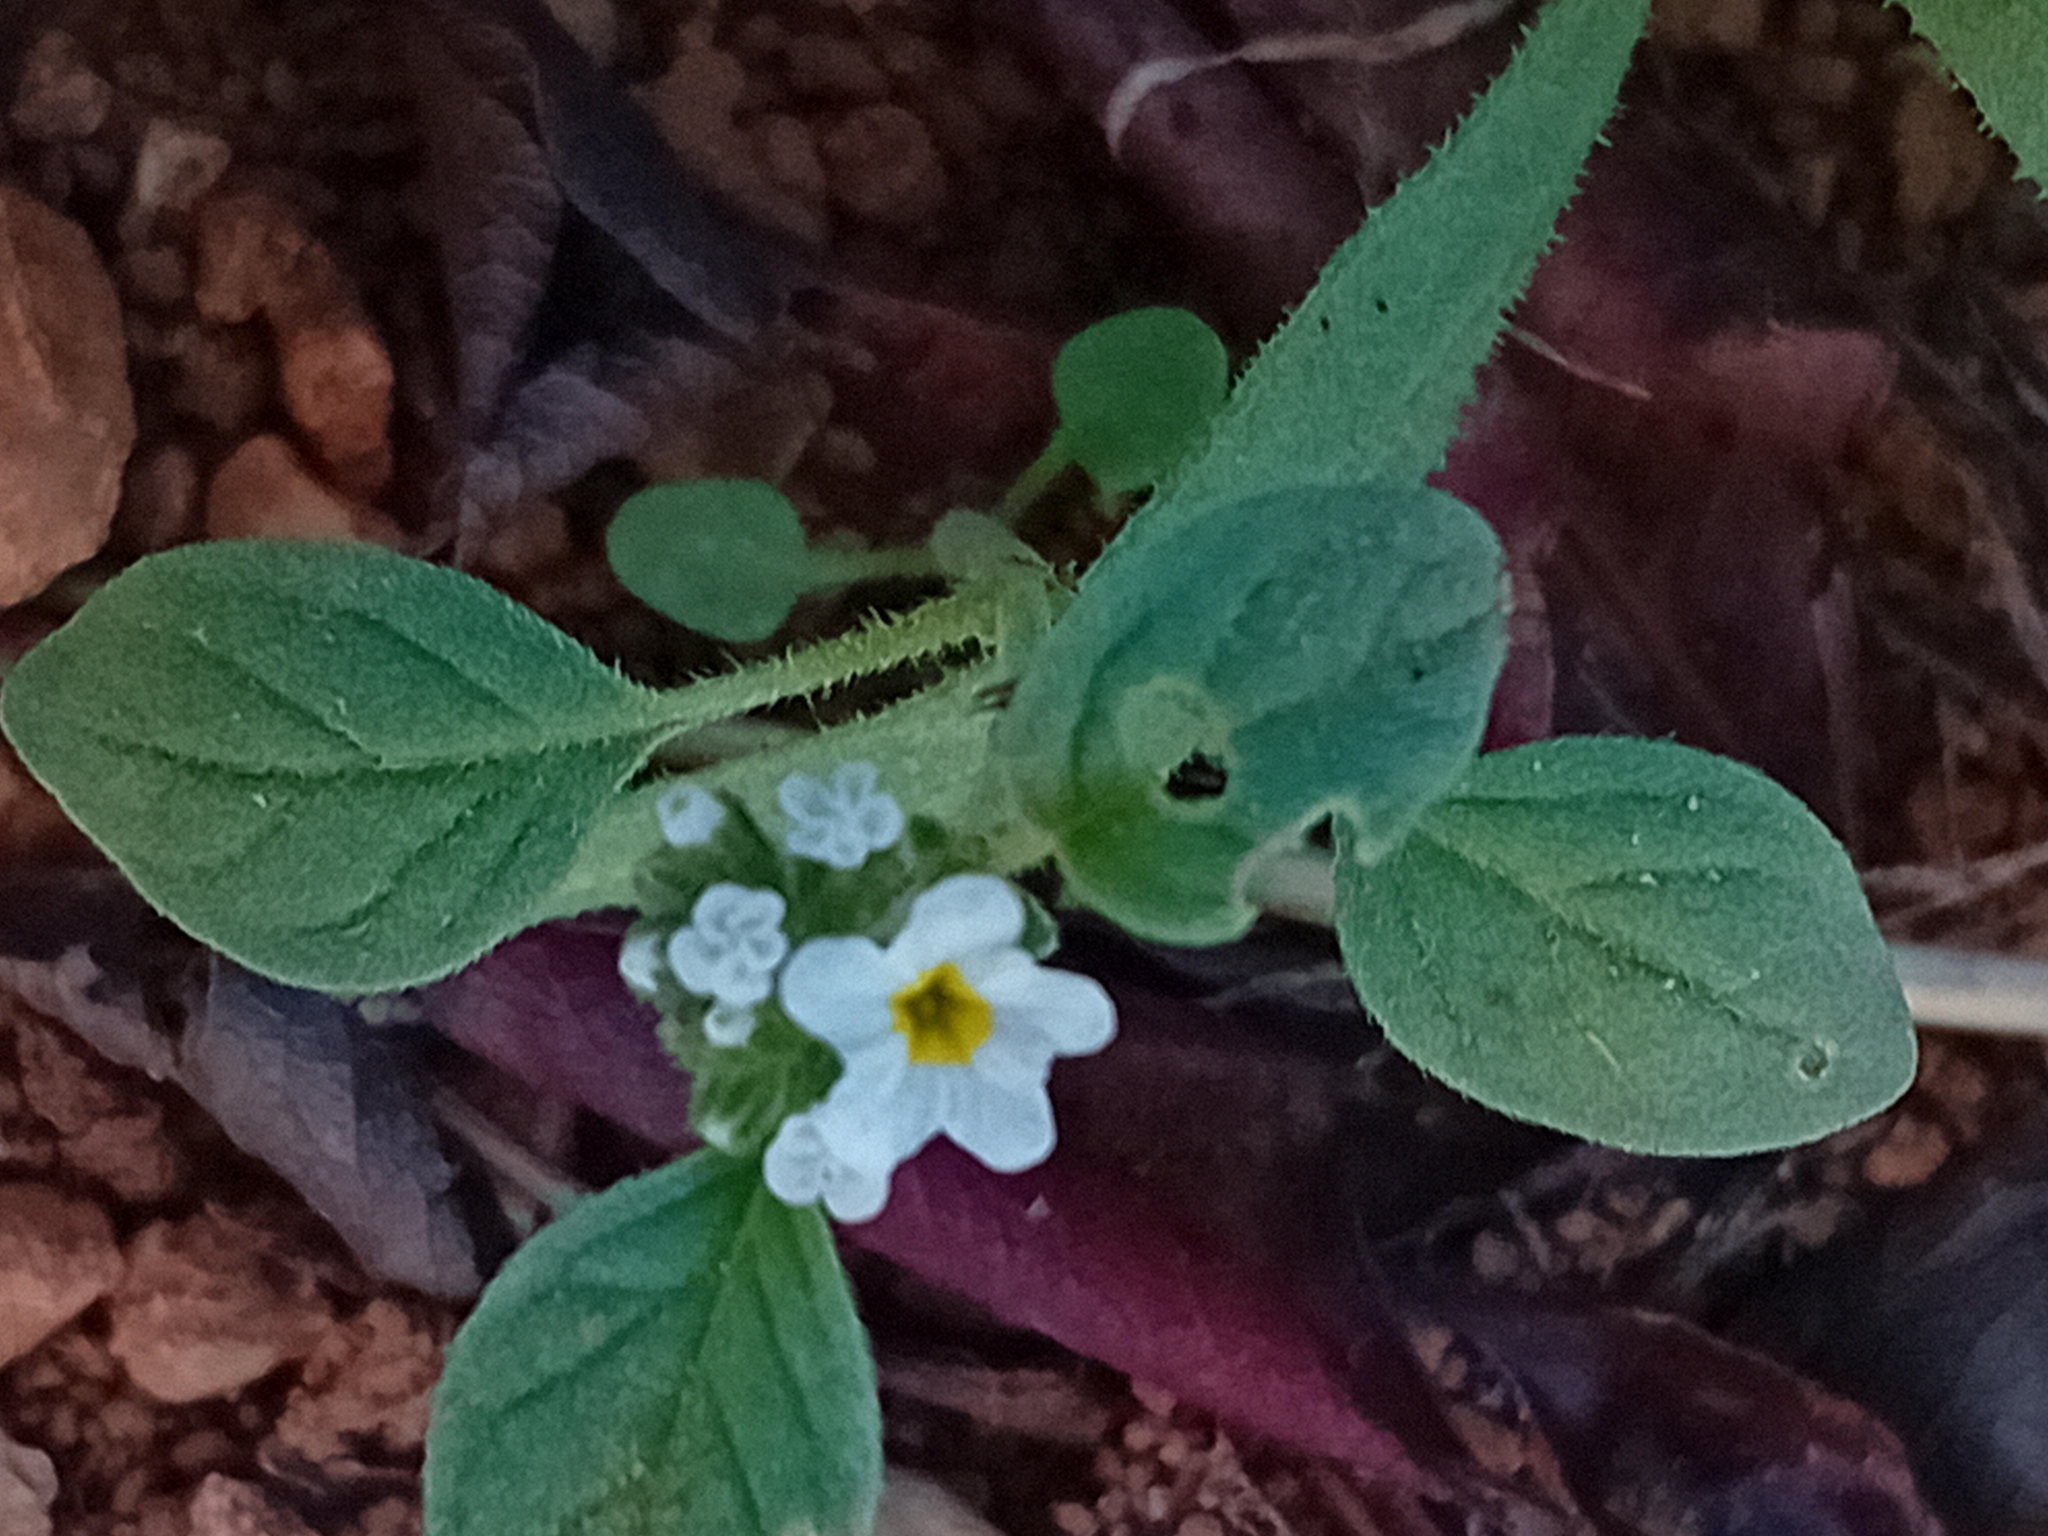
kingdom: Plantae
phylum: Tracheophyta
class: Magnoliopsida
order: Boraginales
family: Heliotropiaceae
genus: Heliotropium
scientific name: Heliotropium europaeum
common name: European heliotrope
